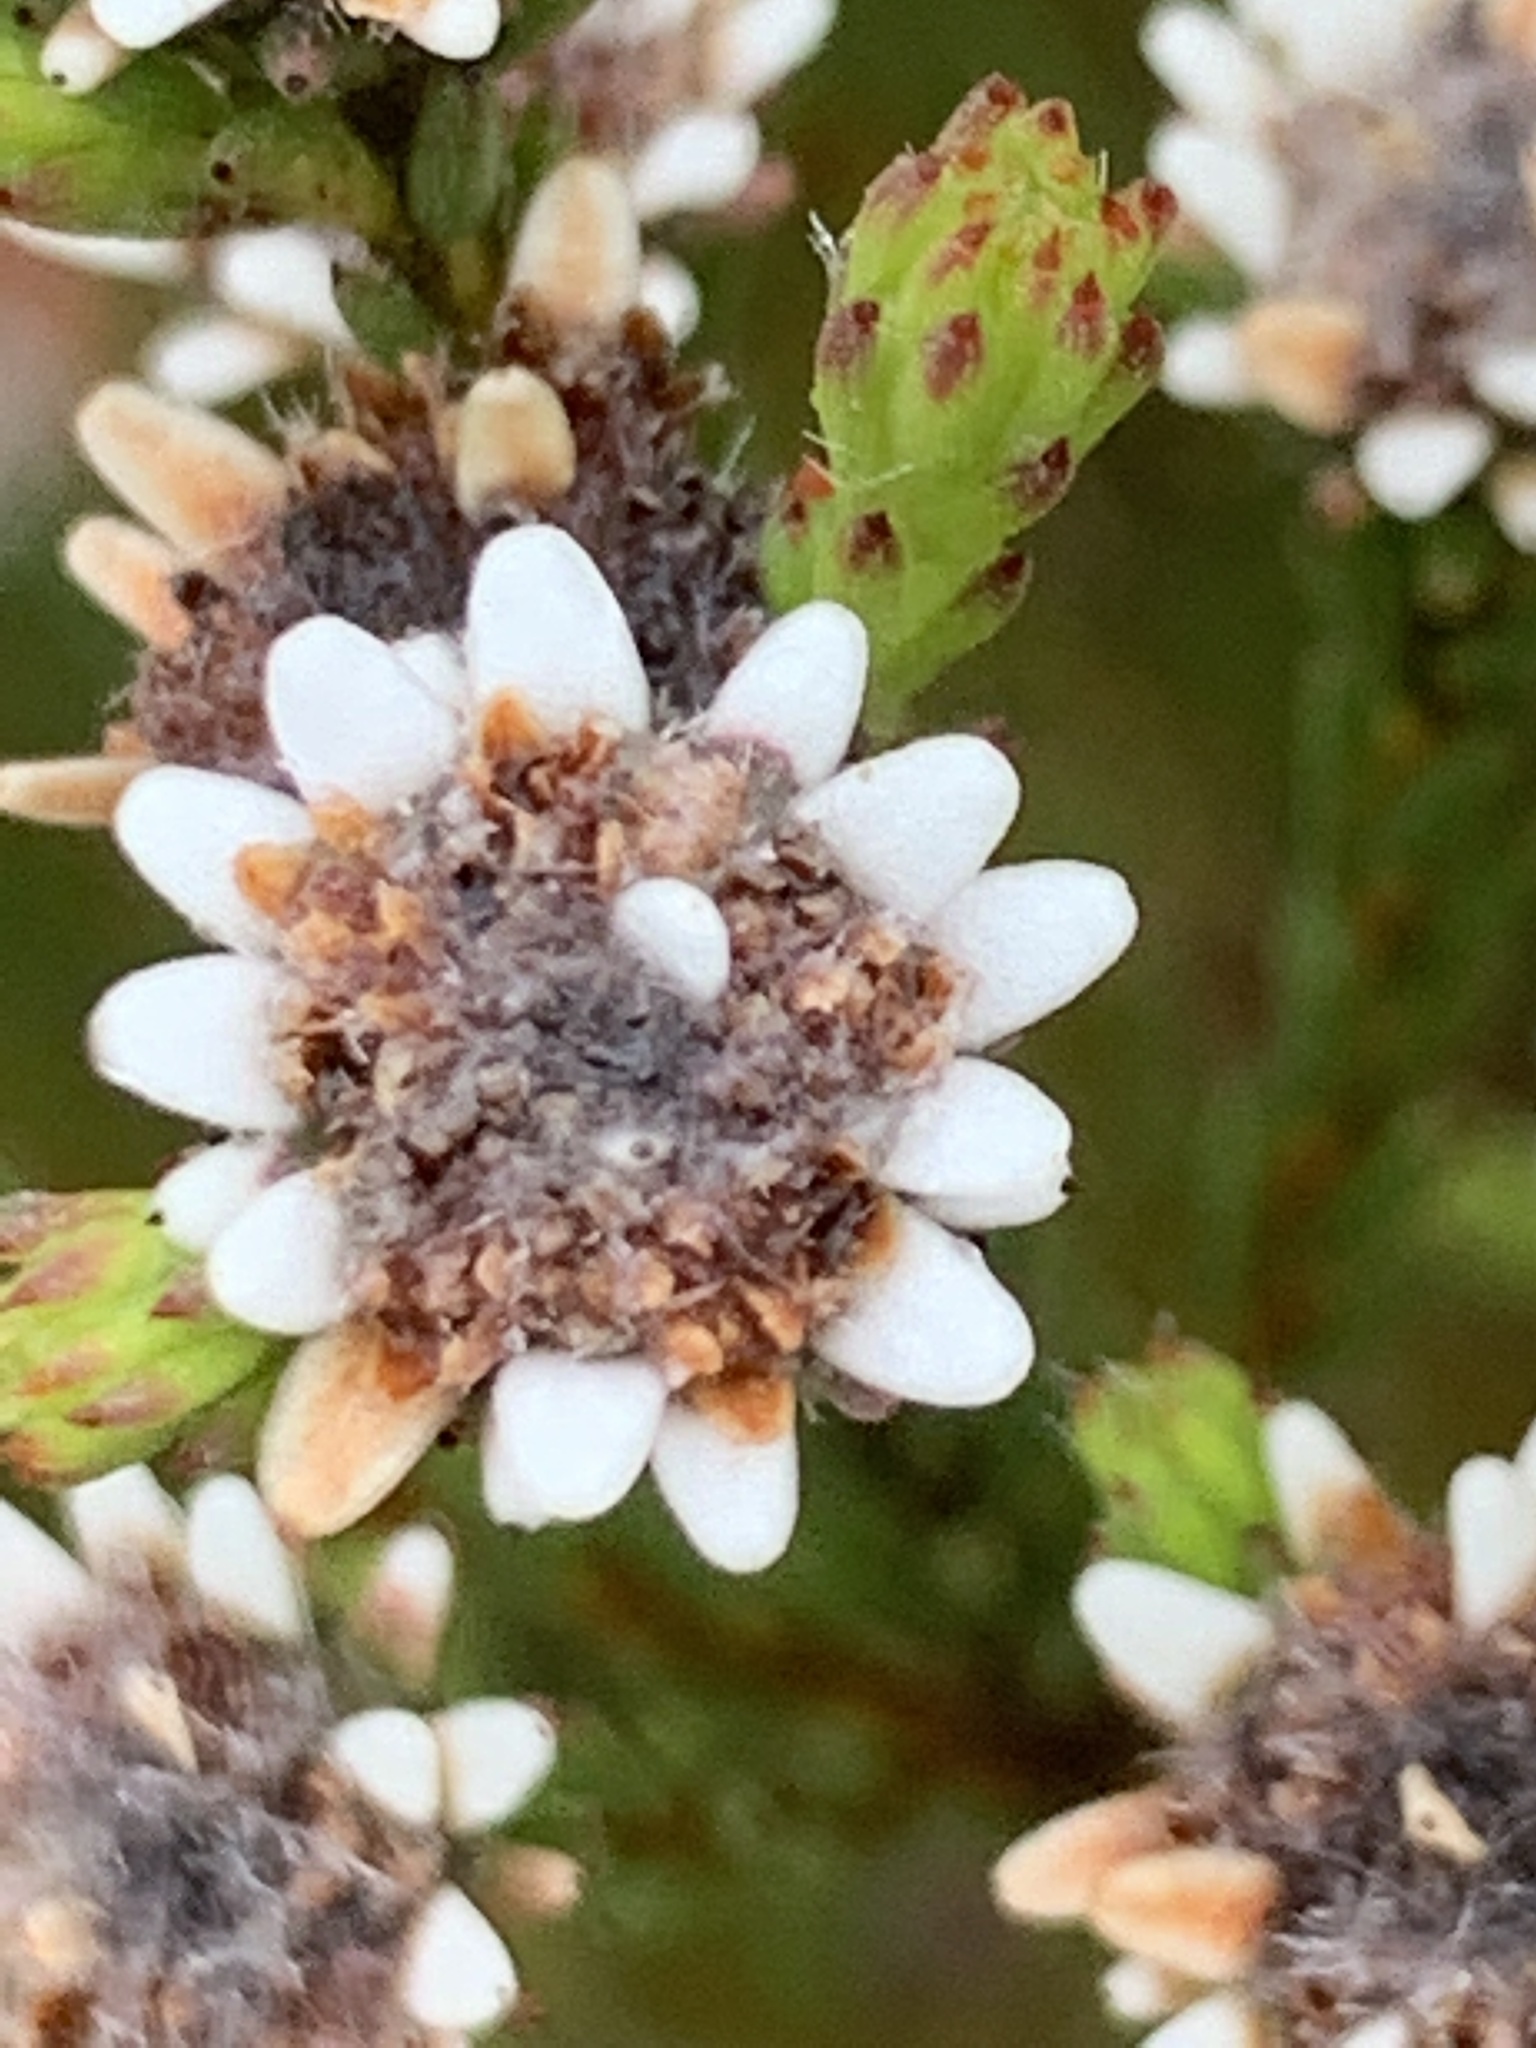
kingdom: Plantae
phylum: Tracheophyta
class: Magnoliopsida
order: Bruniales
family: Bruniaceae
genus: Staavia
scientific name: Staavia radiata
